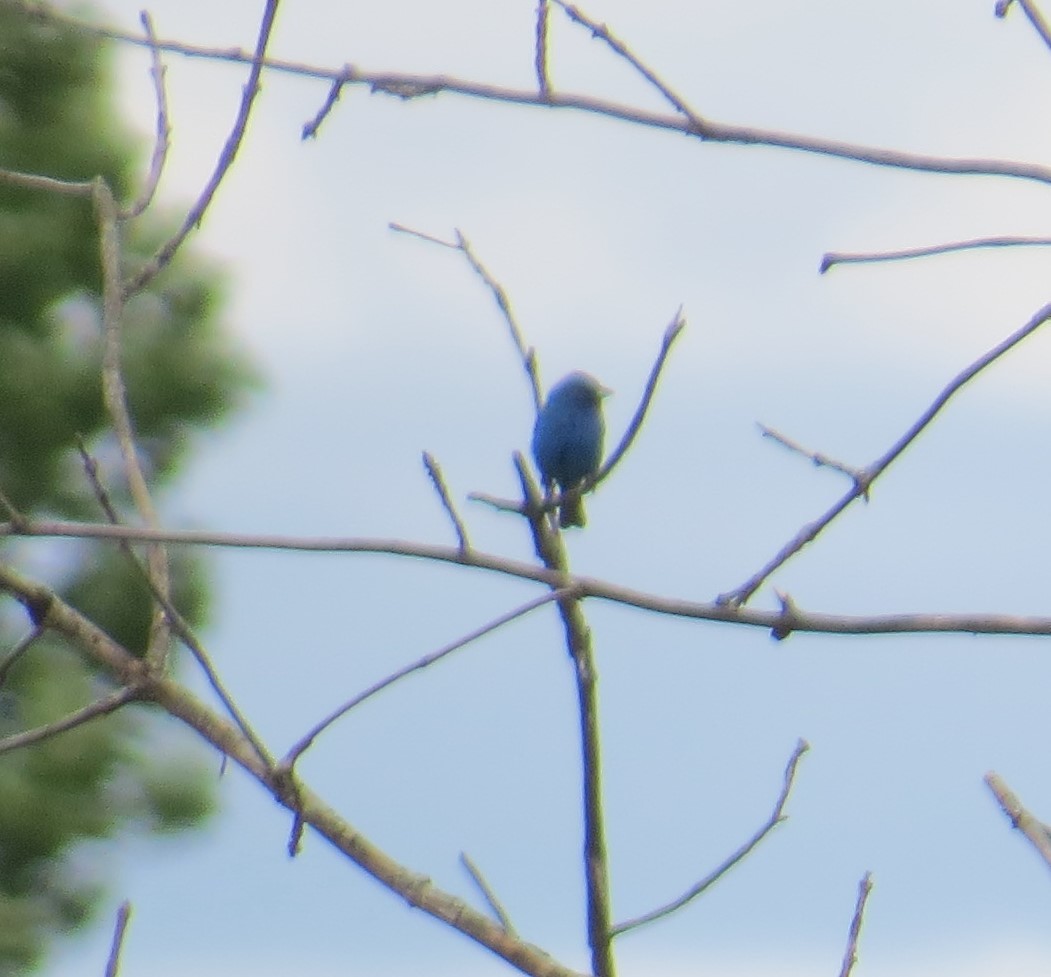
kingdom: Animalia
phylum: Chordata
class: Aves
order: Passeriformes
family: Cardinalidae
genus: Passerina
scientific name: Passerina cyanea
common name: Indigo bunting
